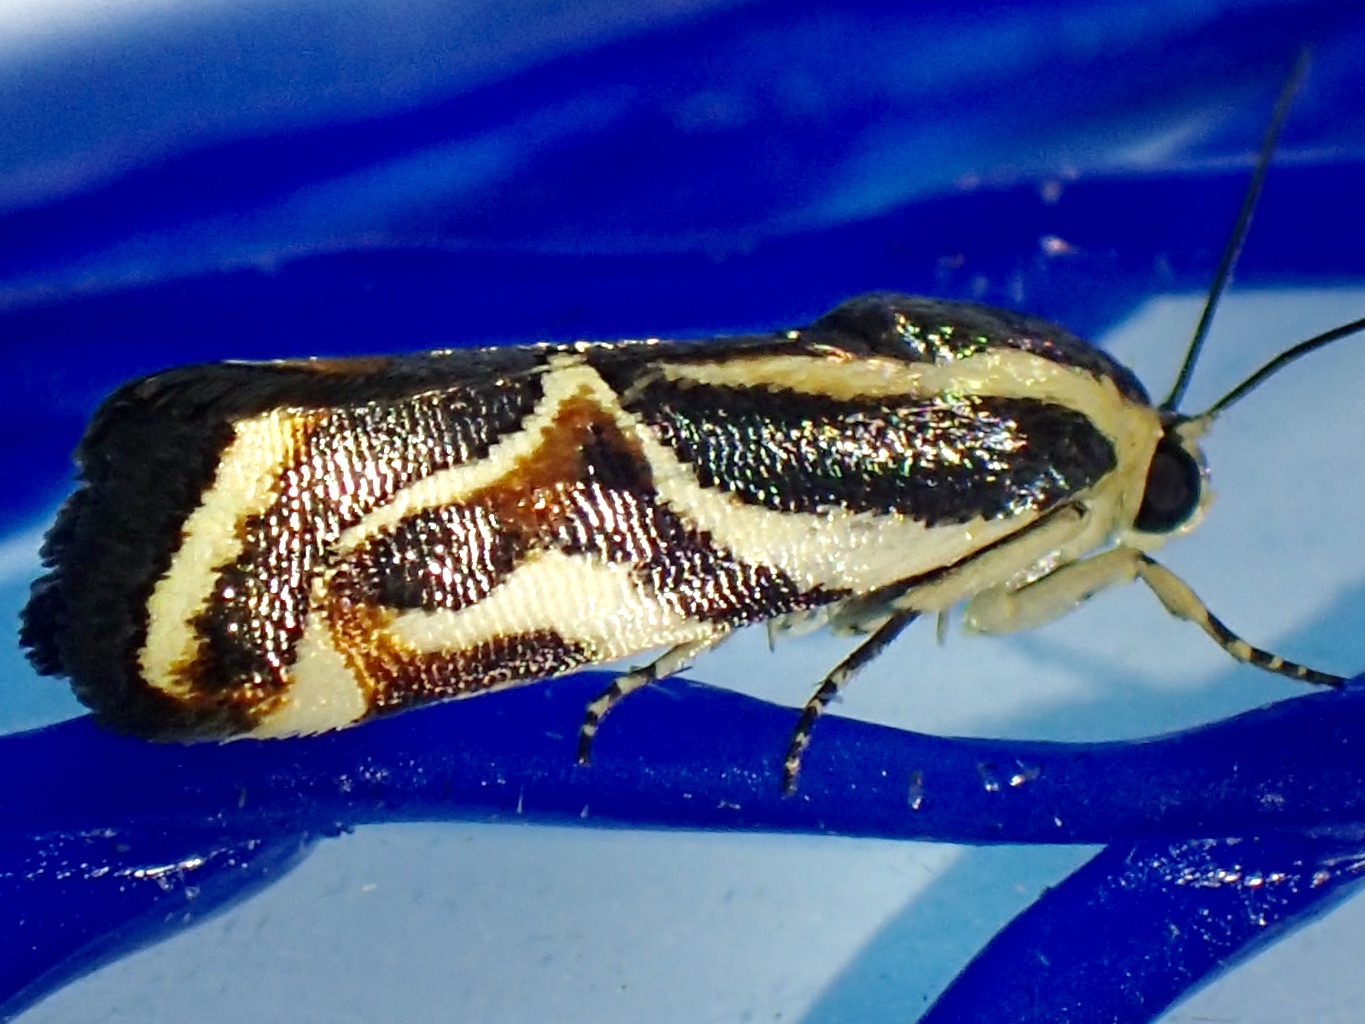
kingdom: Animalia
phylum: Arthropoda
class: Insecta
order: Lepidoptera
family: Noctuidae
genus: Spragueia
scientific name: Spragueia magnifica
